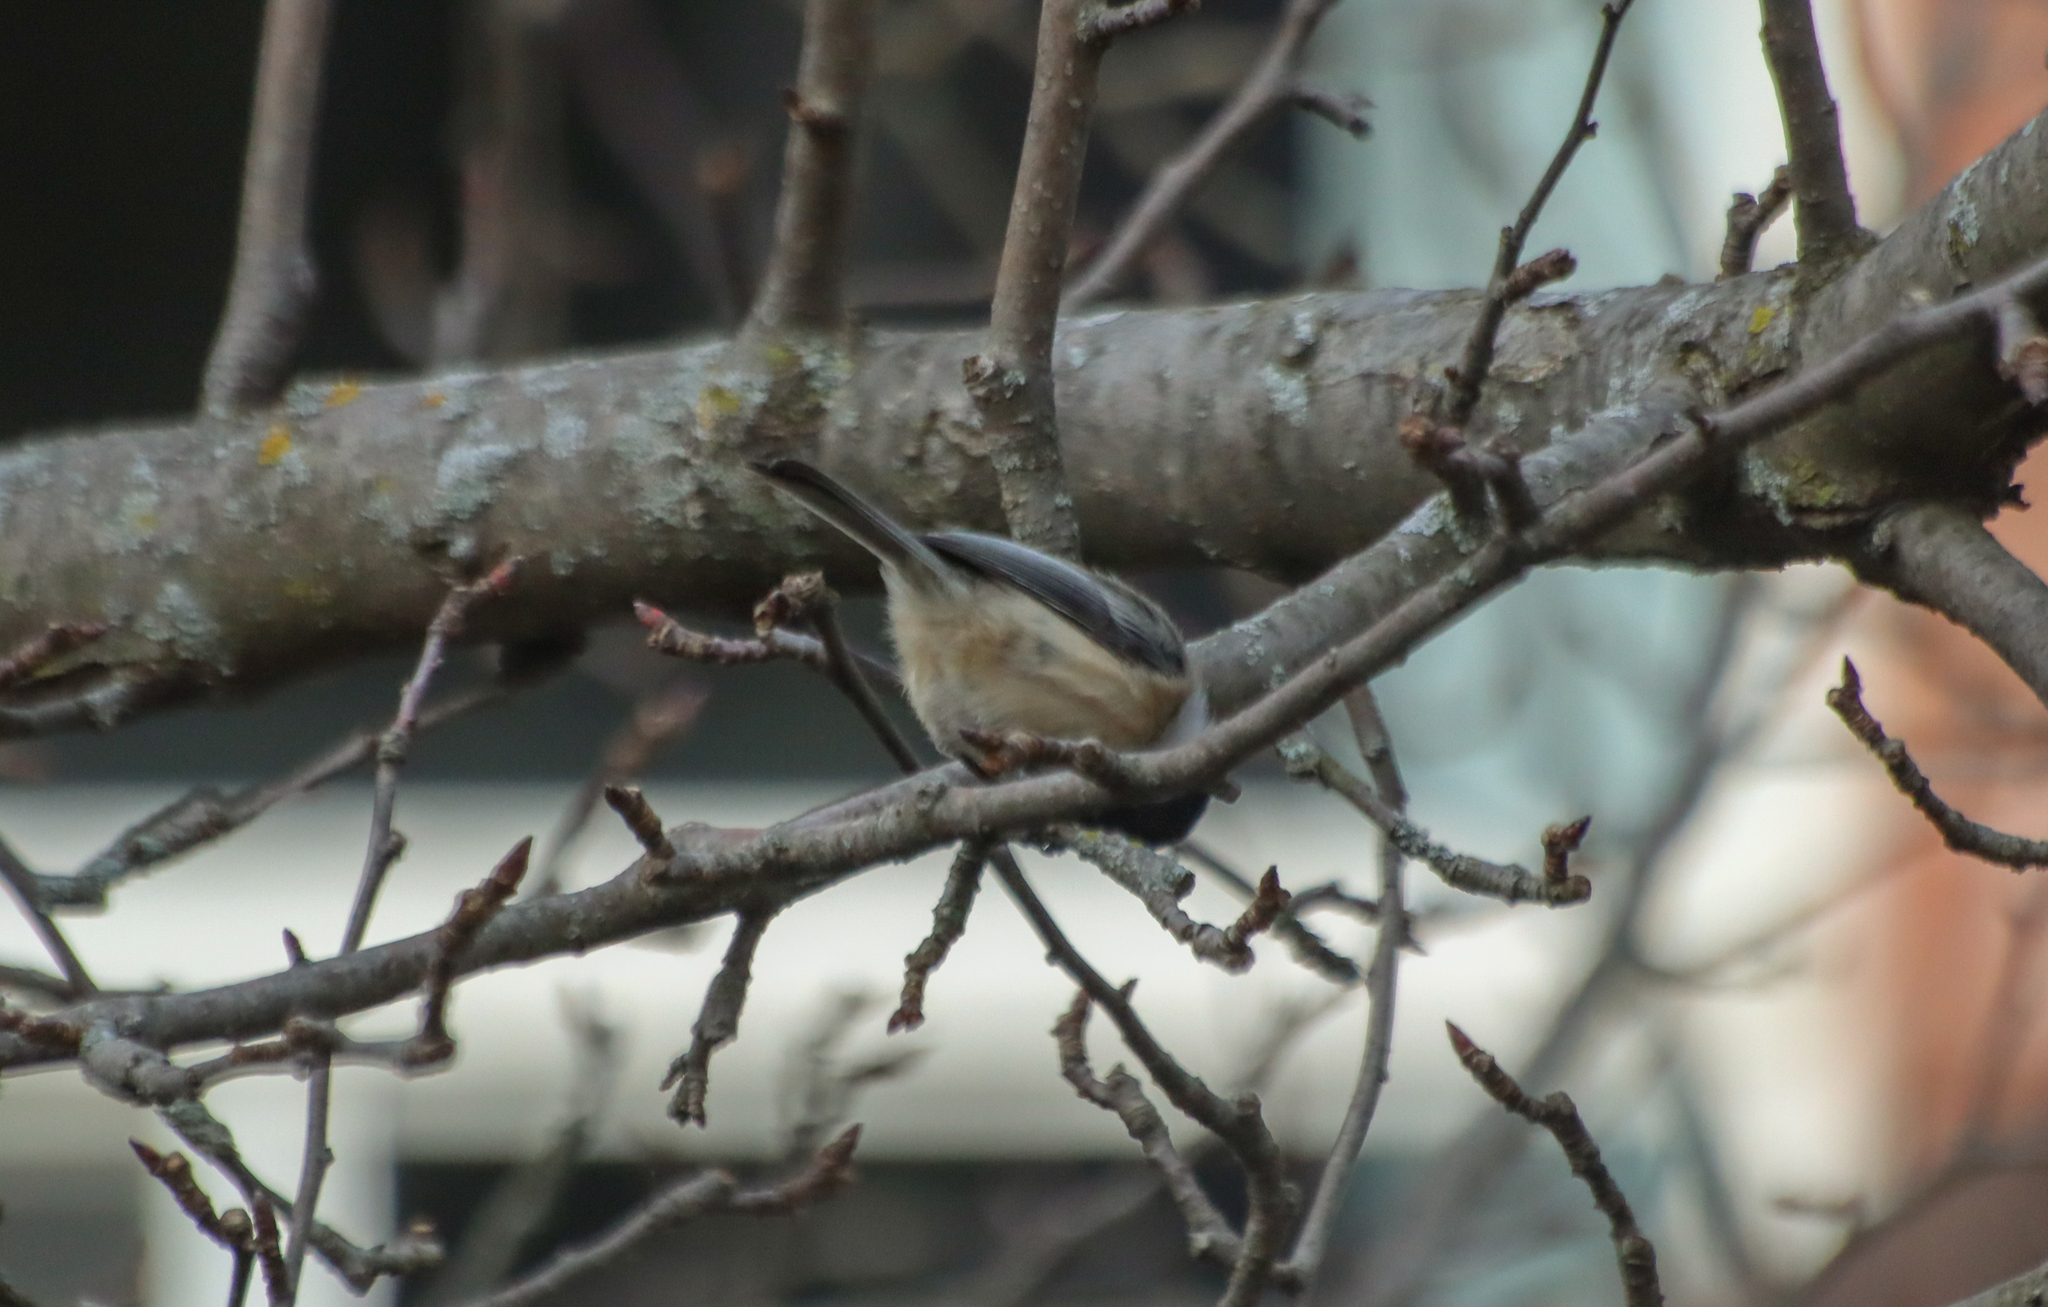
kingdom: Animalia
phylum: Chordata
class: Aves
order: Passeriformes
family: Paridae
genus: Poecile
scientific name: Poecile atricapillus
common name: Black-capped chickadee
